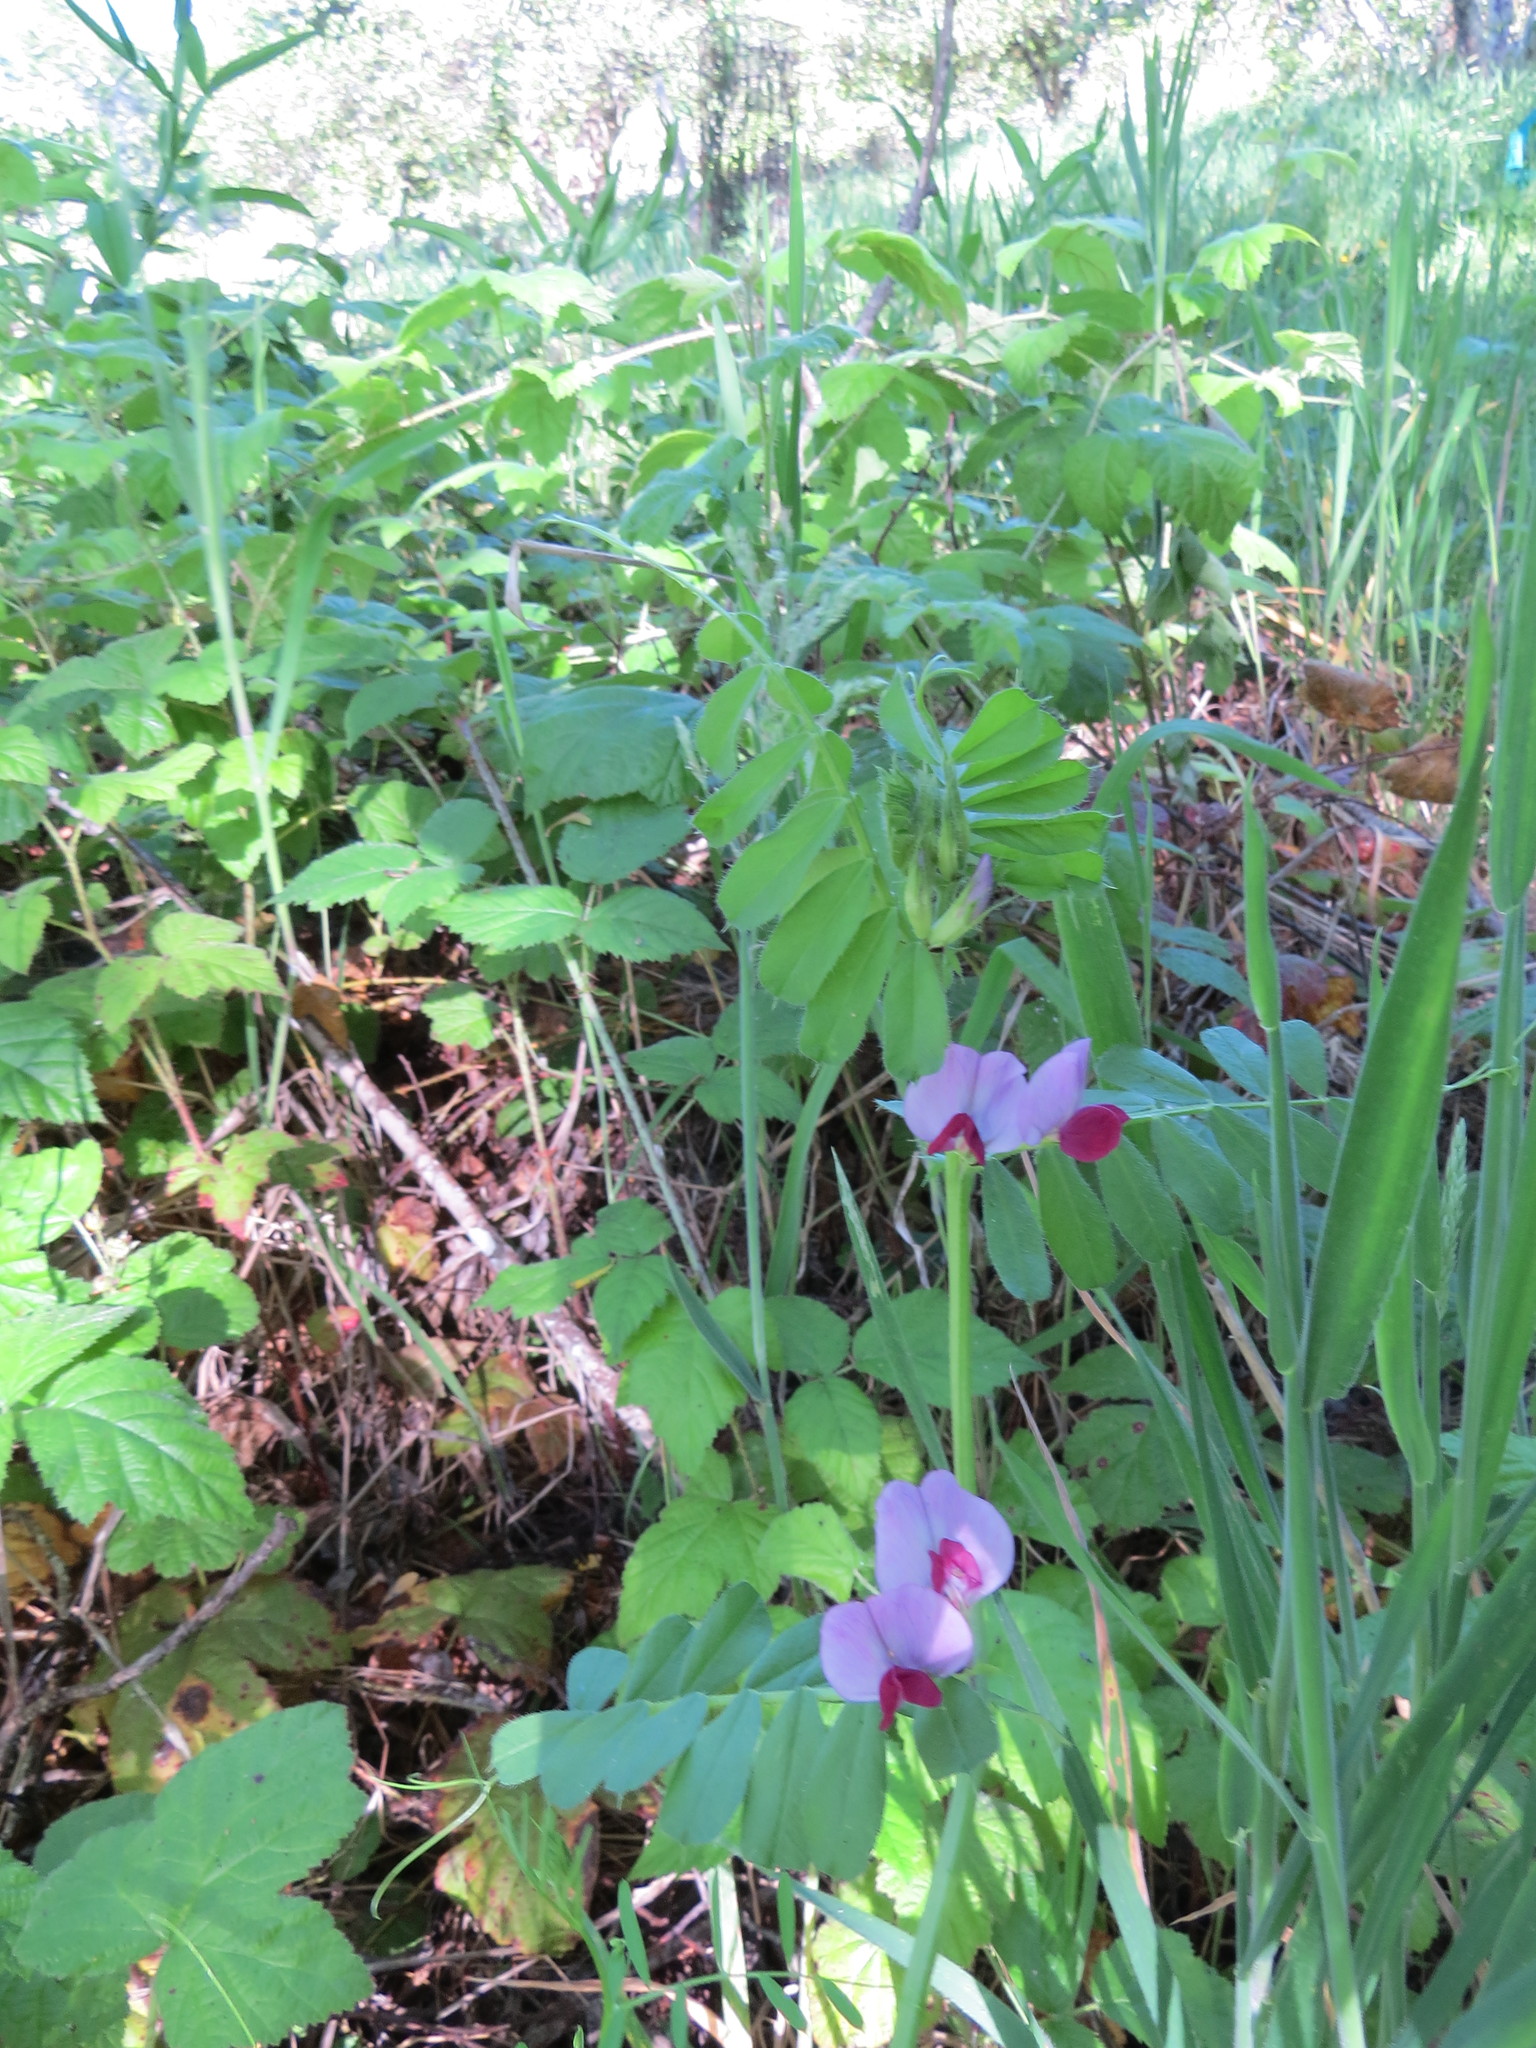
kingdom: Plantae
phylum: Tracheophyta
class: Magnoliopsida
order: Fabales
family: Fabaceae
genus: Vicia
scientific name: Vicia sativa
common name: Garden vetch
